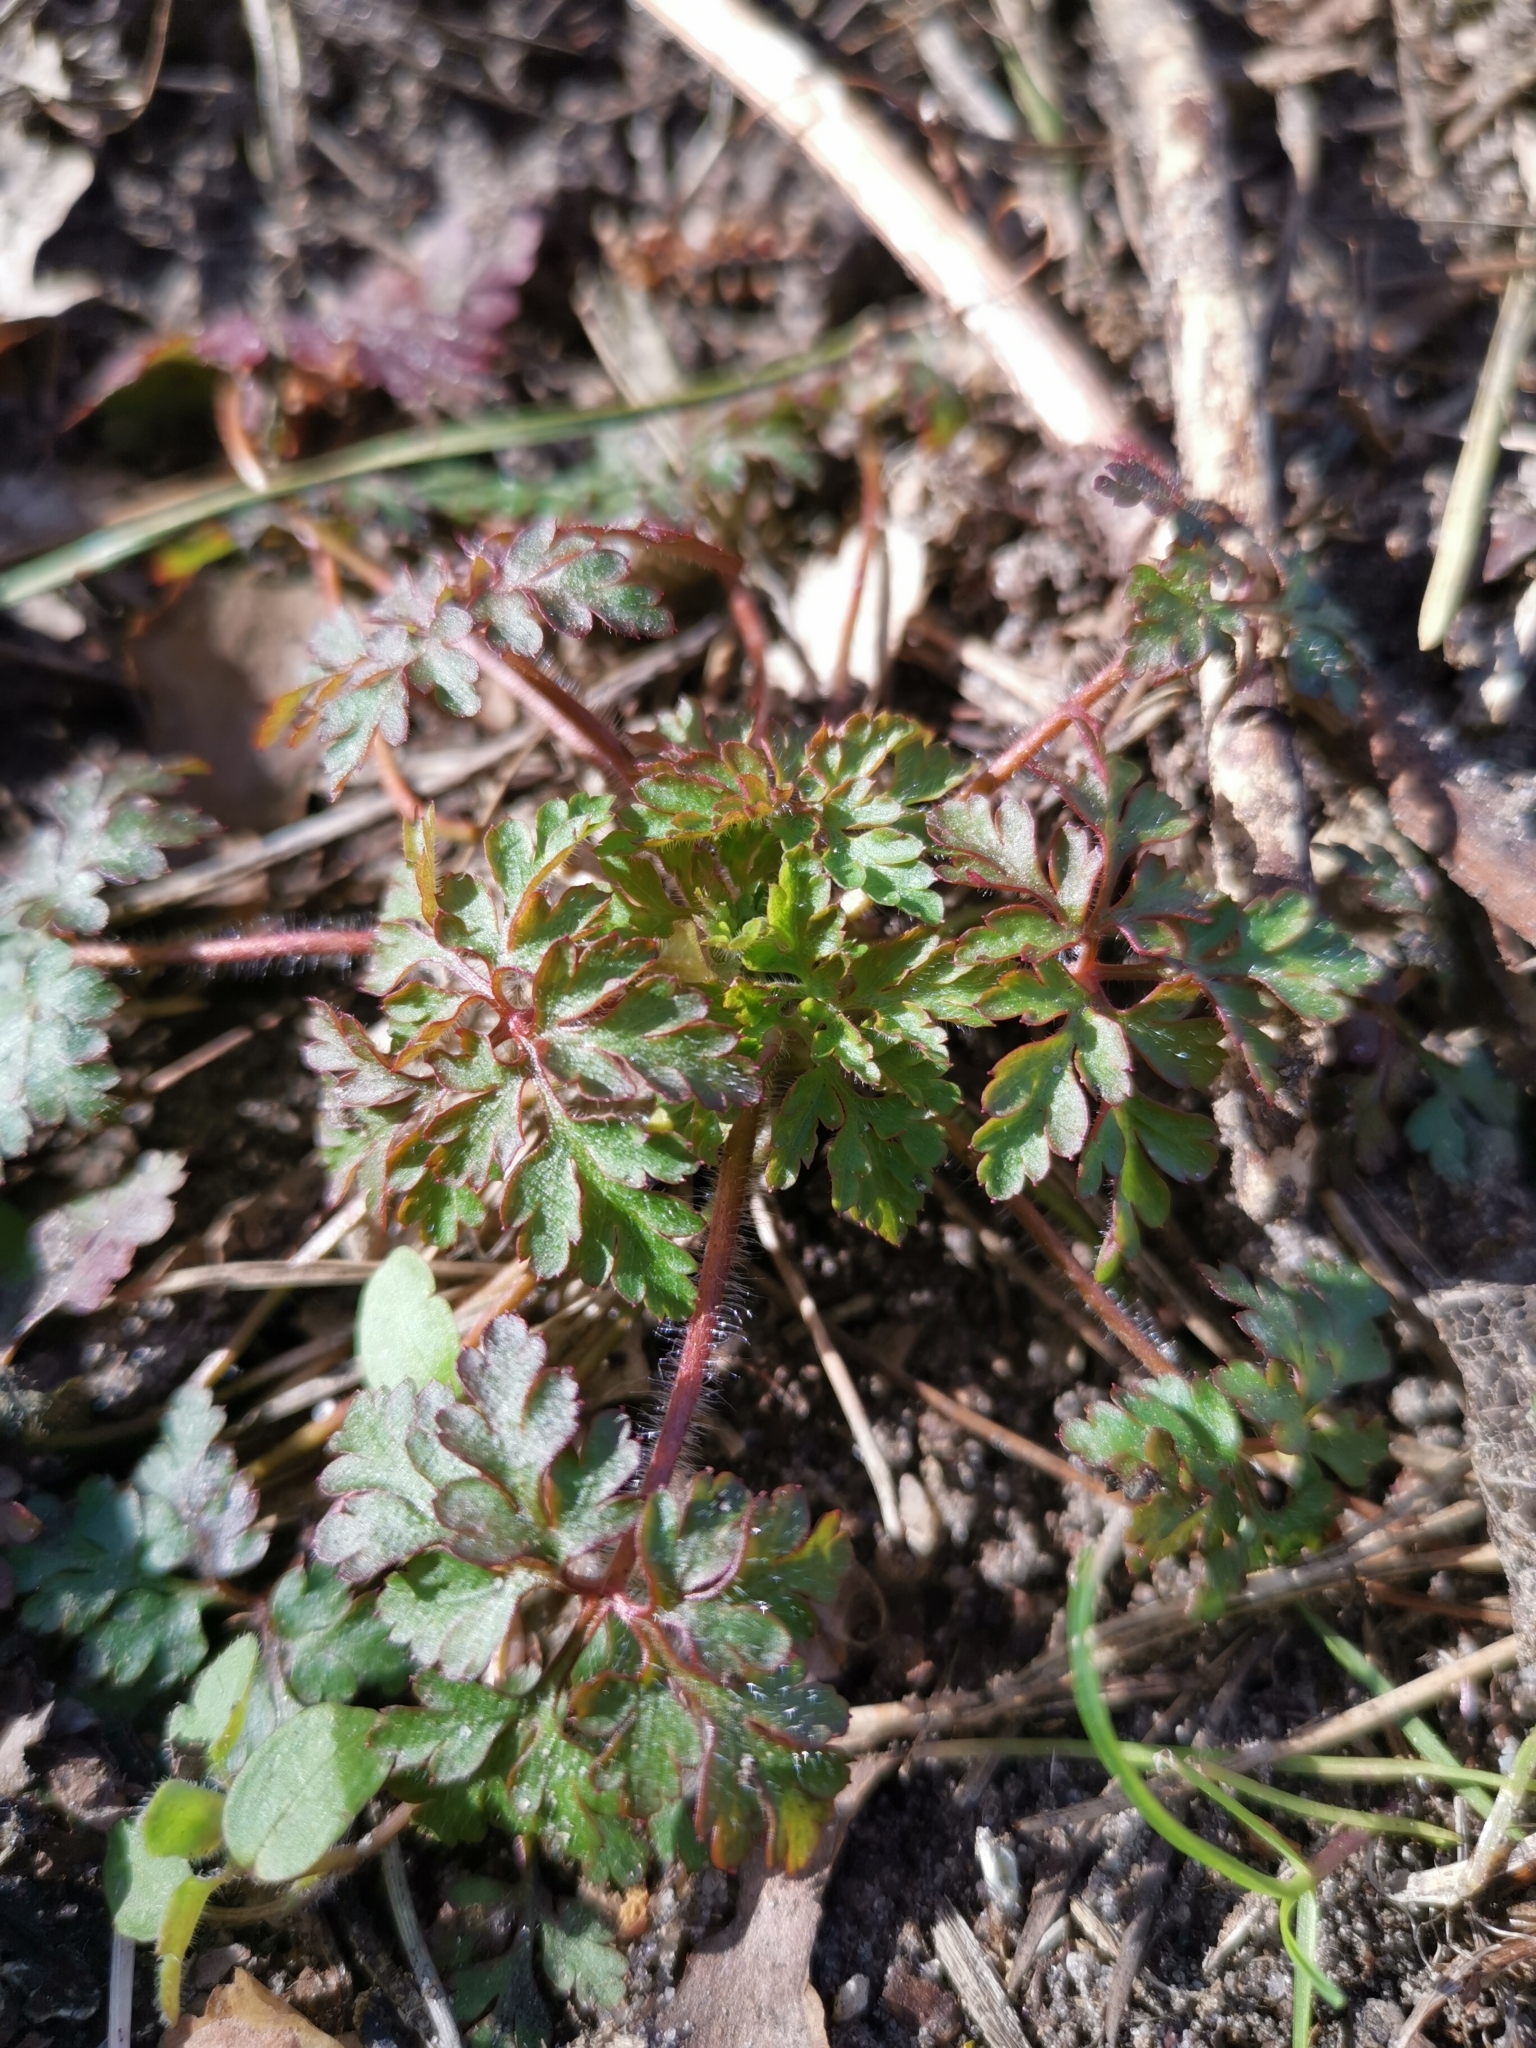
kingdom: Plantae
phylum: Tracheophyta
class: Magnoliopsida
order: Geraniales
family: Geraniaceae
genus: Geranium
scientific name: Geranium robertianum
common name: Herb-robert
